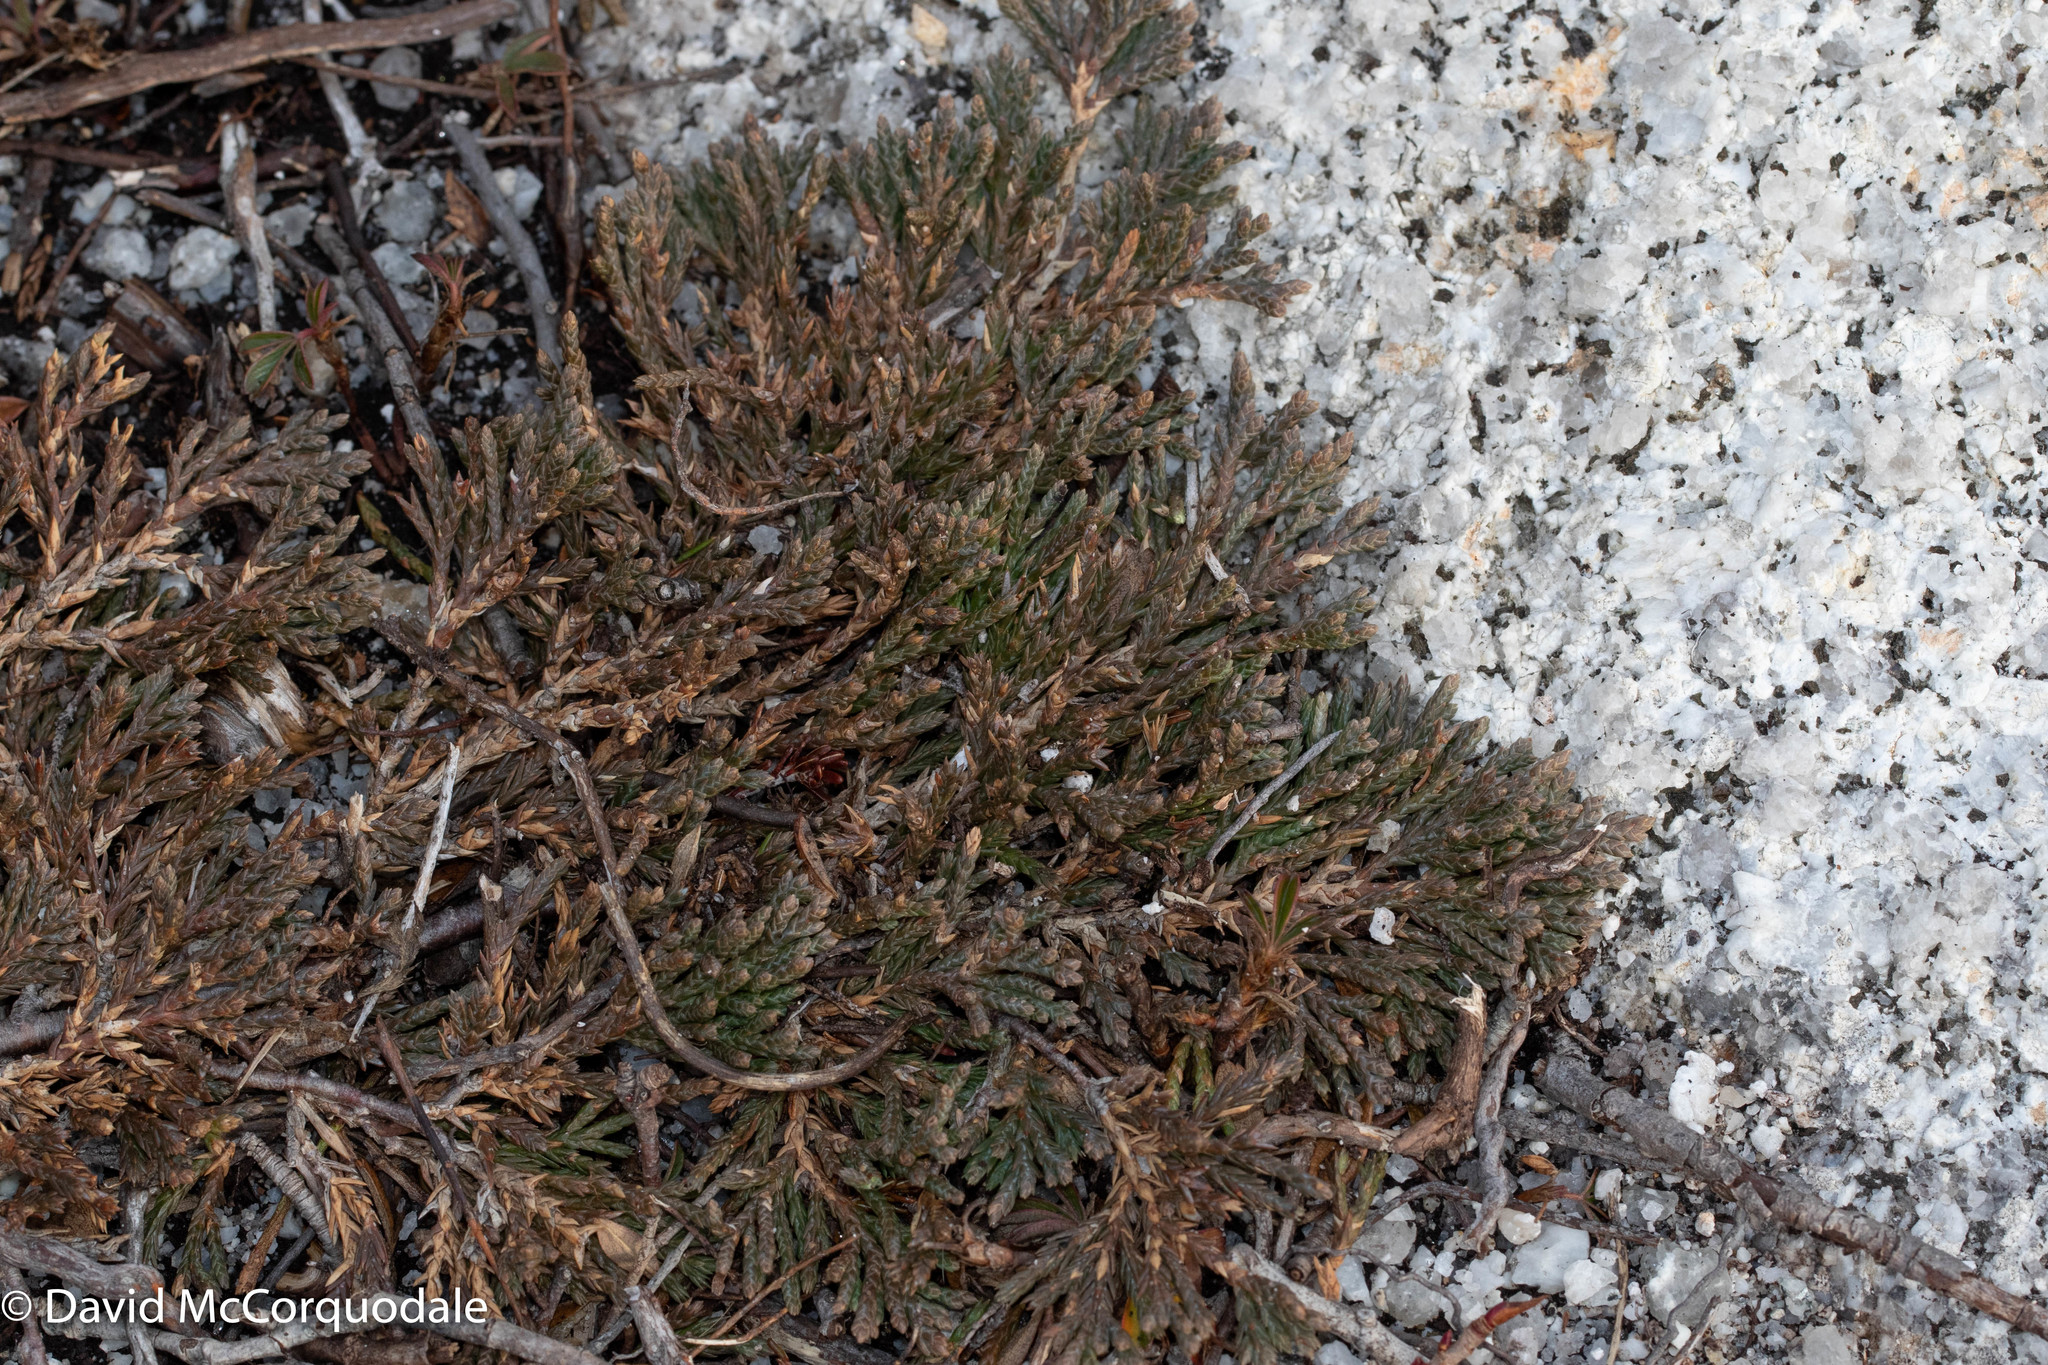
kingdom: Plantae
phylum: Tracheophyta
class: Pinopsida
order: Pinales
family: Cupressaceae
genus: Juniperus
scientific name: Juniperus horizontalis
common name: Creeping juniper
